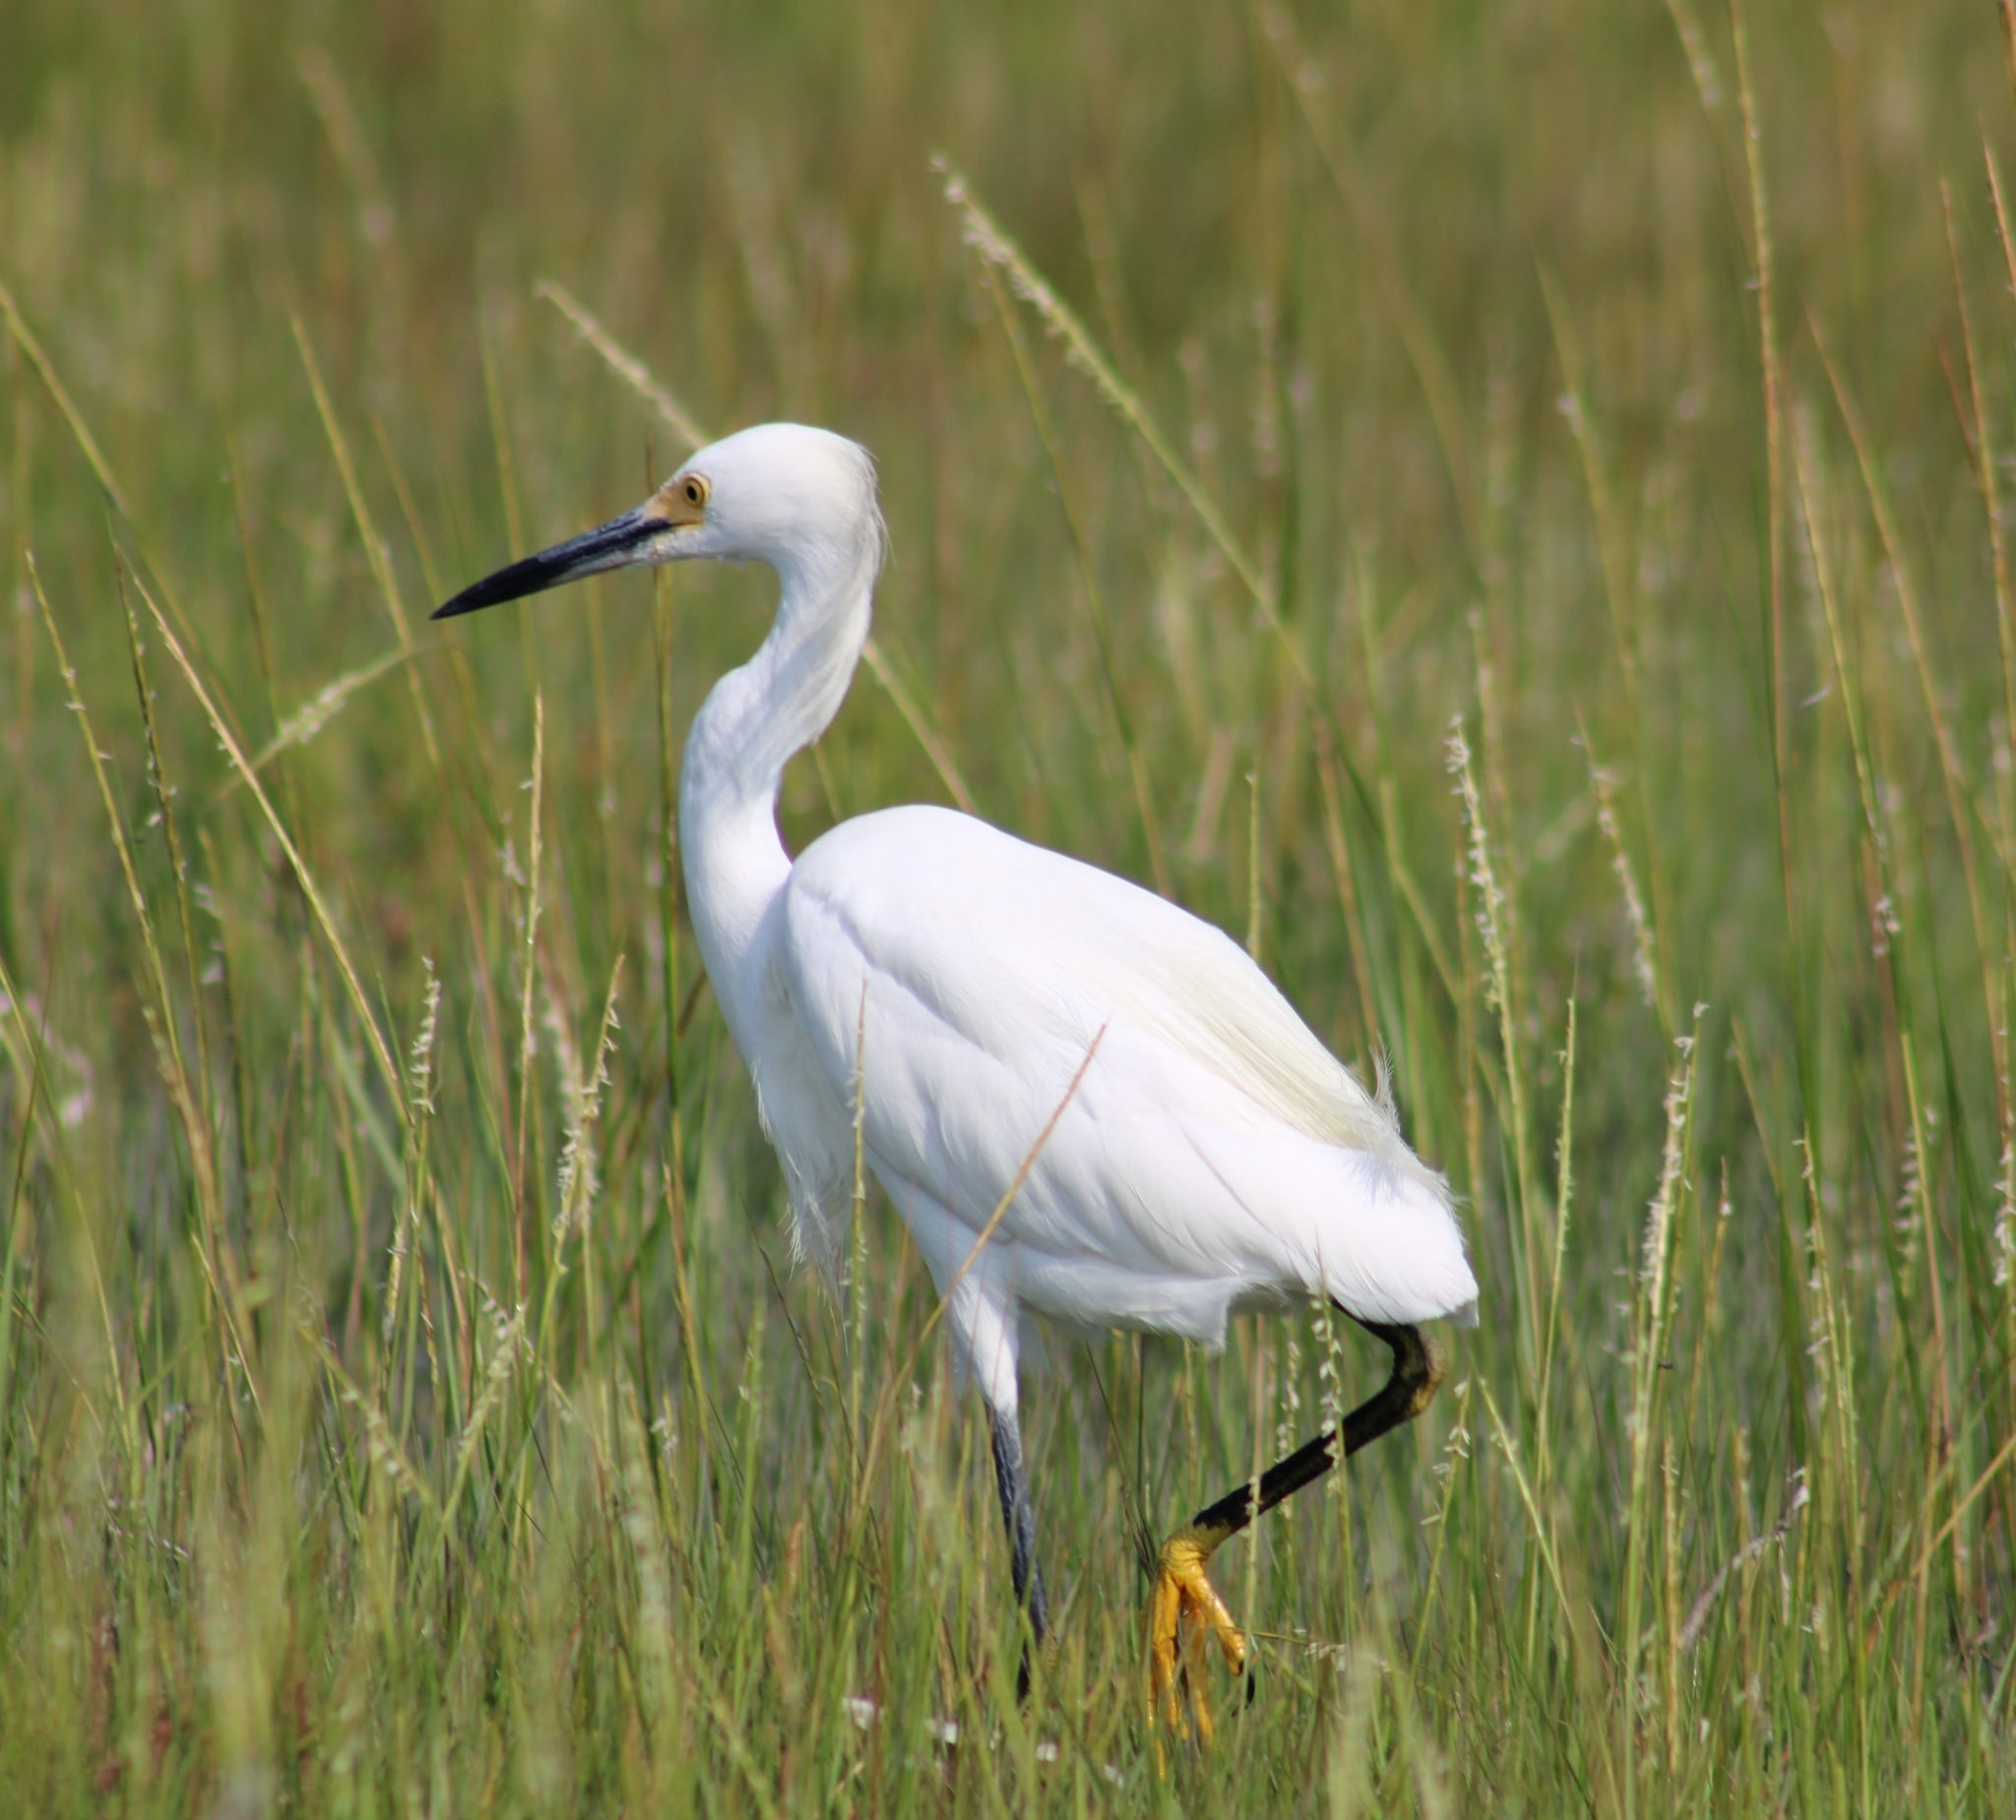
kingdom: Animalia
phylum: Chordata
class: Aves
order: Pelecaniformes
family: Ardeidae
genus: Egretta
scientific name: Egretta thula
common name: Snowy egret
